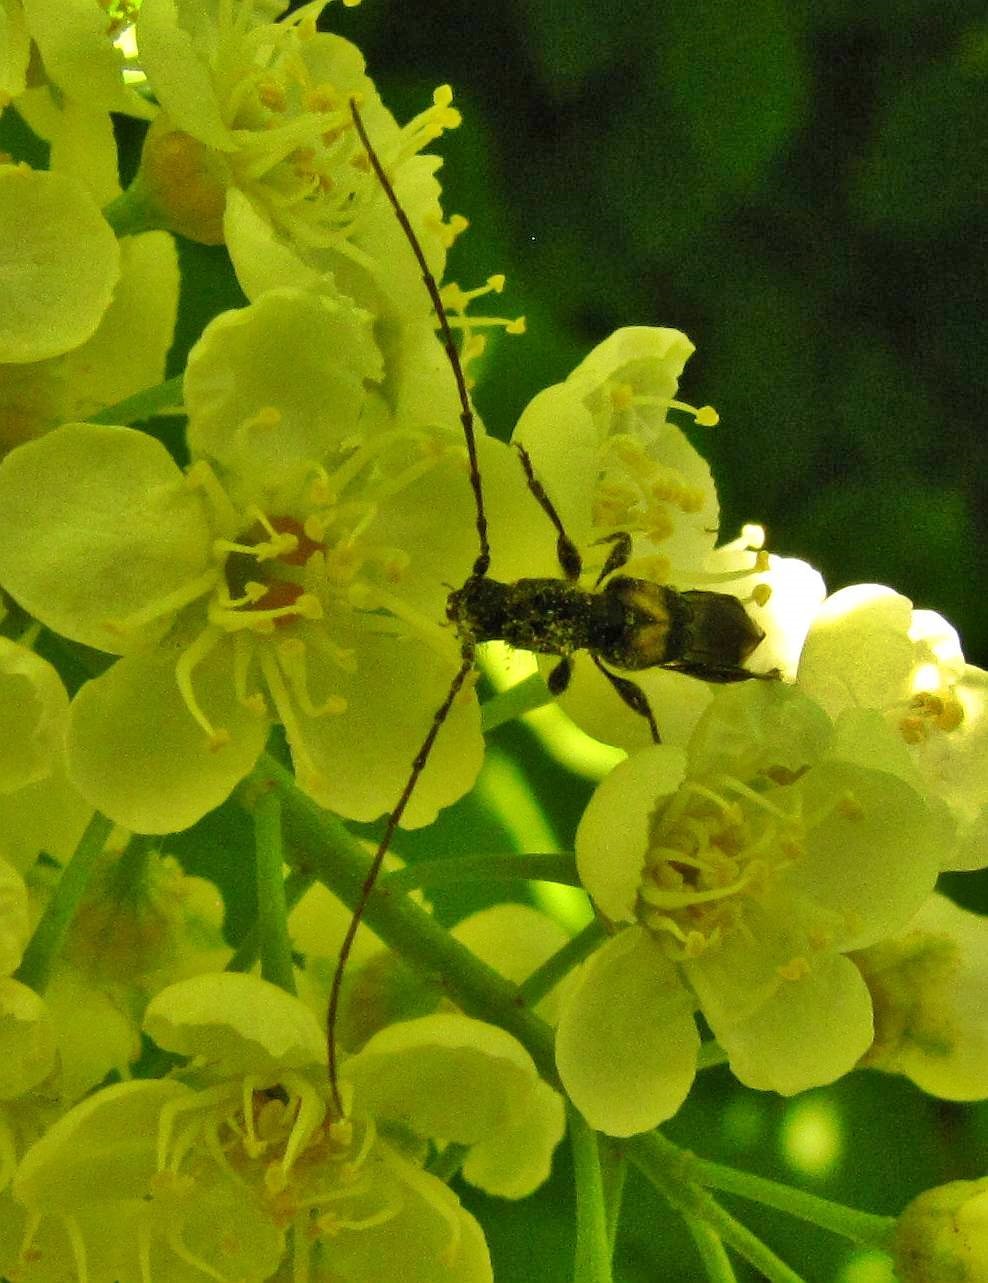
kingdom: Animalia
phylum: Arthropoda
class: Insecta
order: Coleoptera
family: Cerambycidae
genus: Molorchus
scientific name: Molorchus bimaculatus
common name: Bimaculate longhorn beetle
